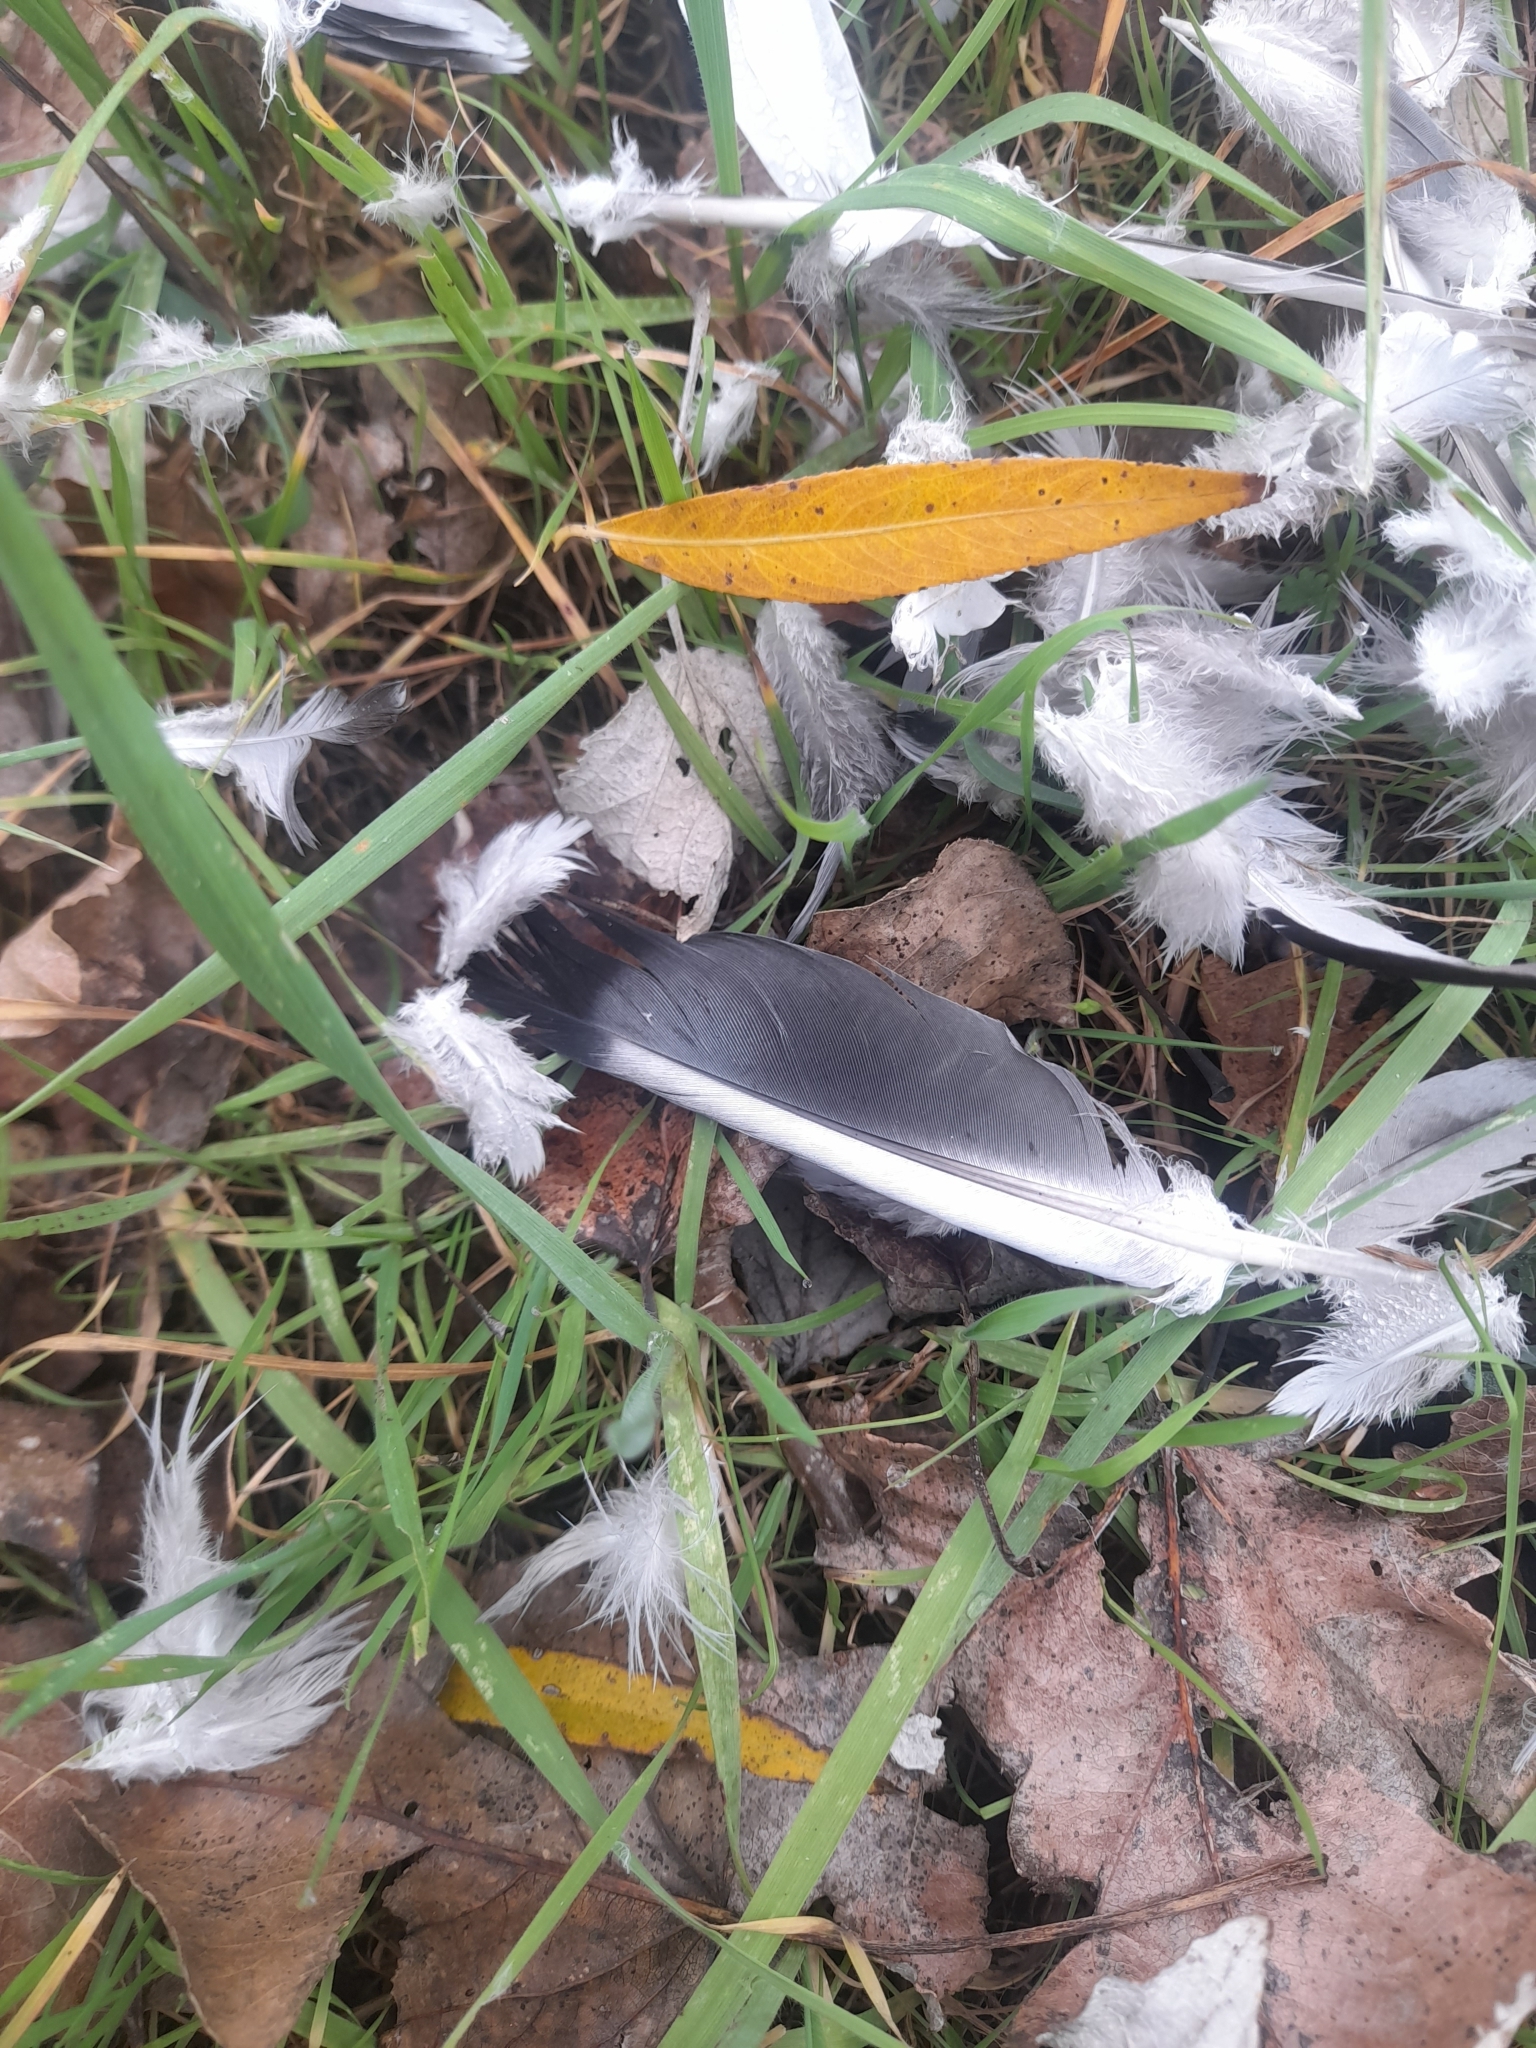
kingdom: Animalia
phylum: Chordata
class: Aves
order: Columbiformes
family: Columbidae
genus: Columba
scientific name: Columba livia
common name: Rock pigeon
